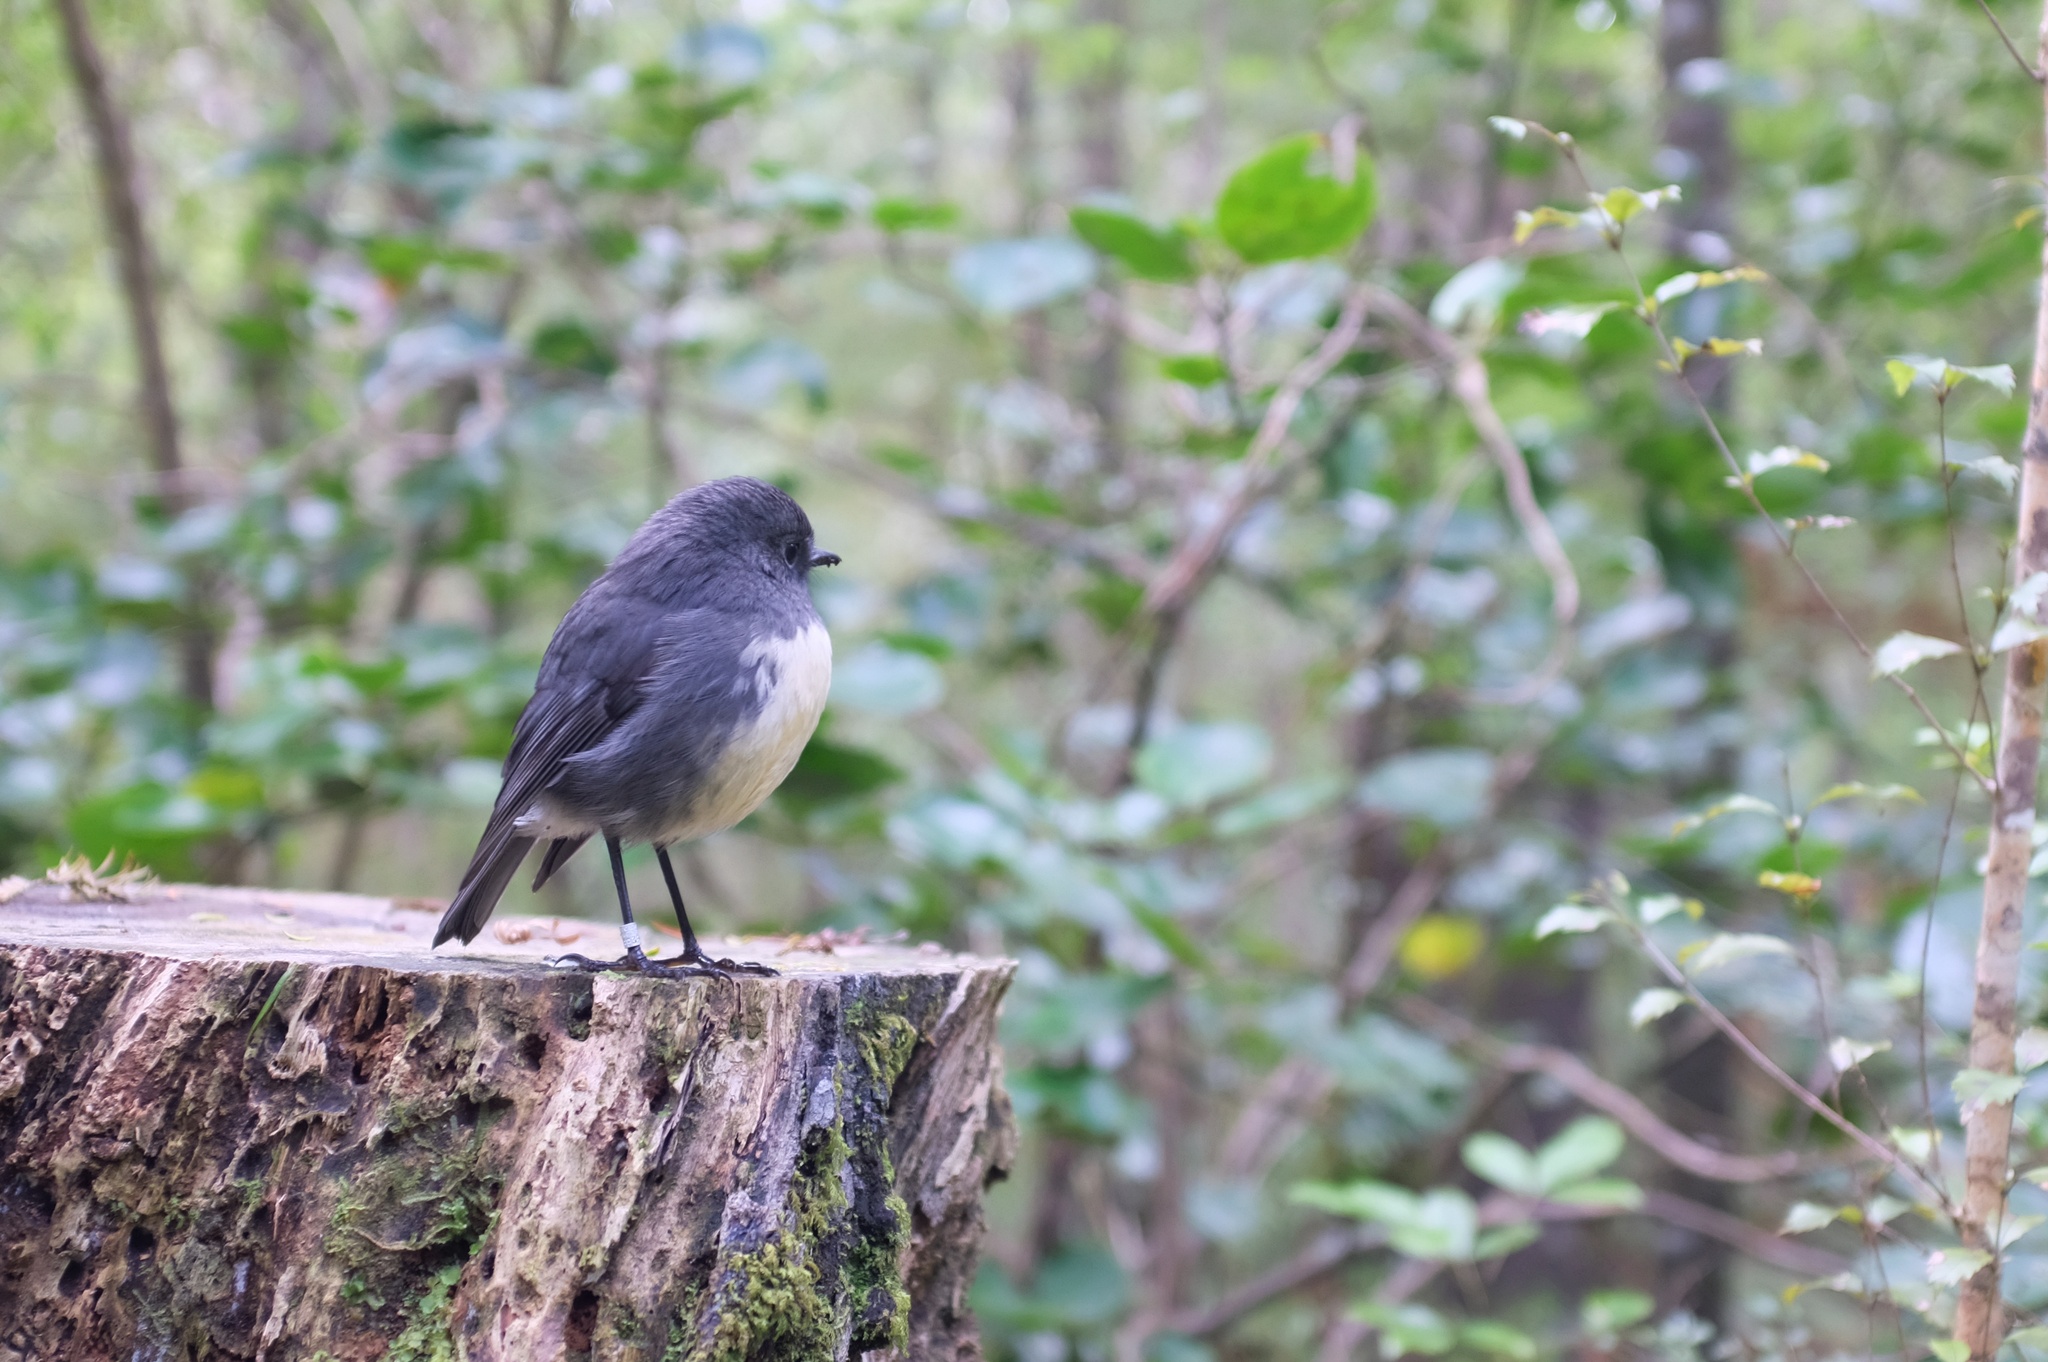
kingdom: Animalia
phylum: Chordata
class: Aves
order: Passeriformes
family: Petroicidae
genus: Petroica
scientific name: Petroica australis
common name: New zealand robin
